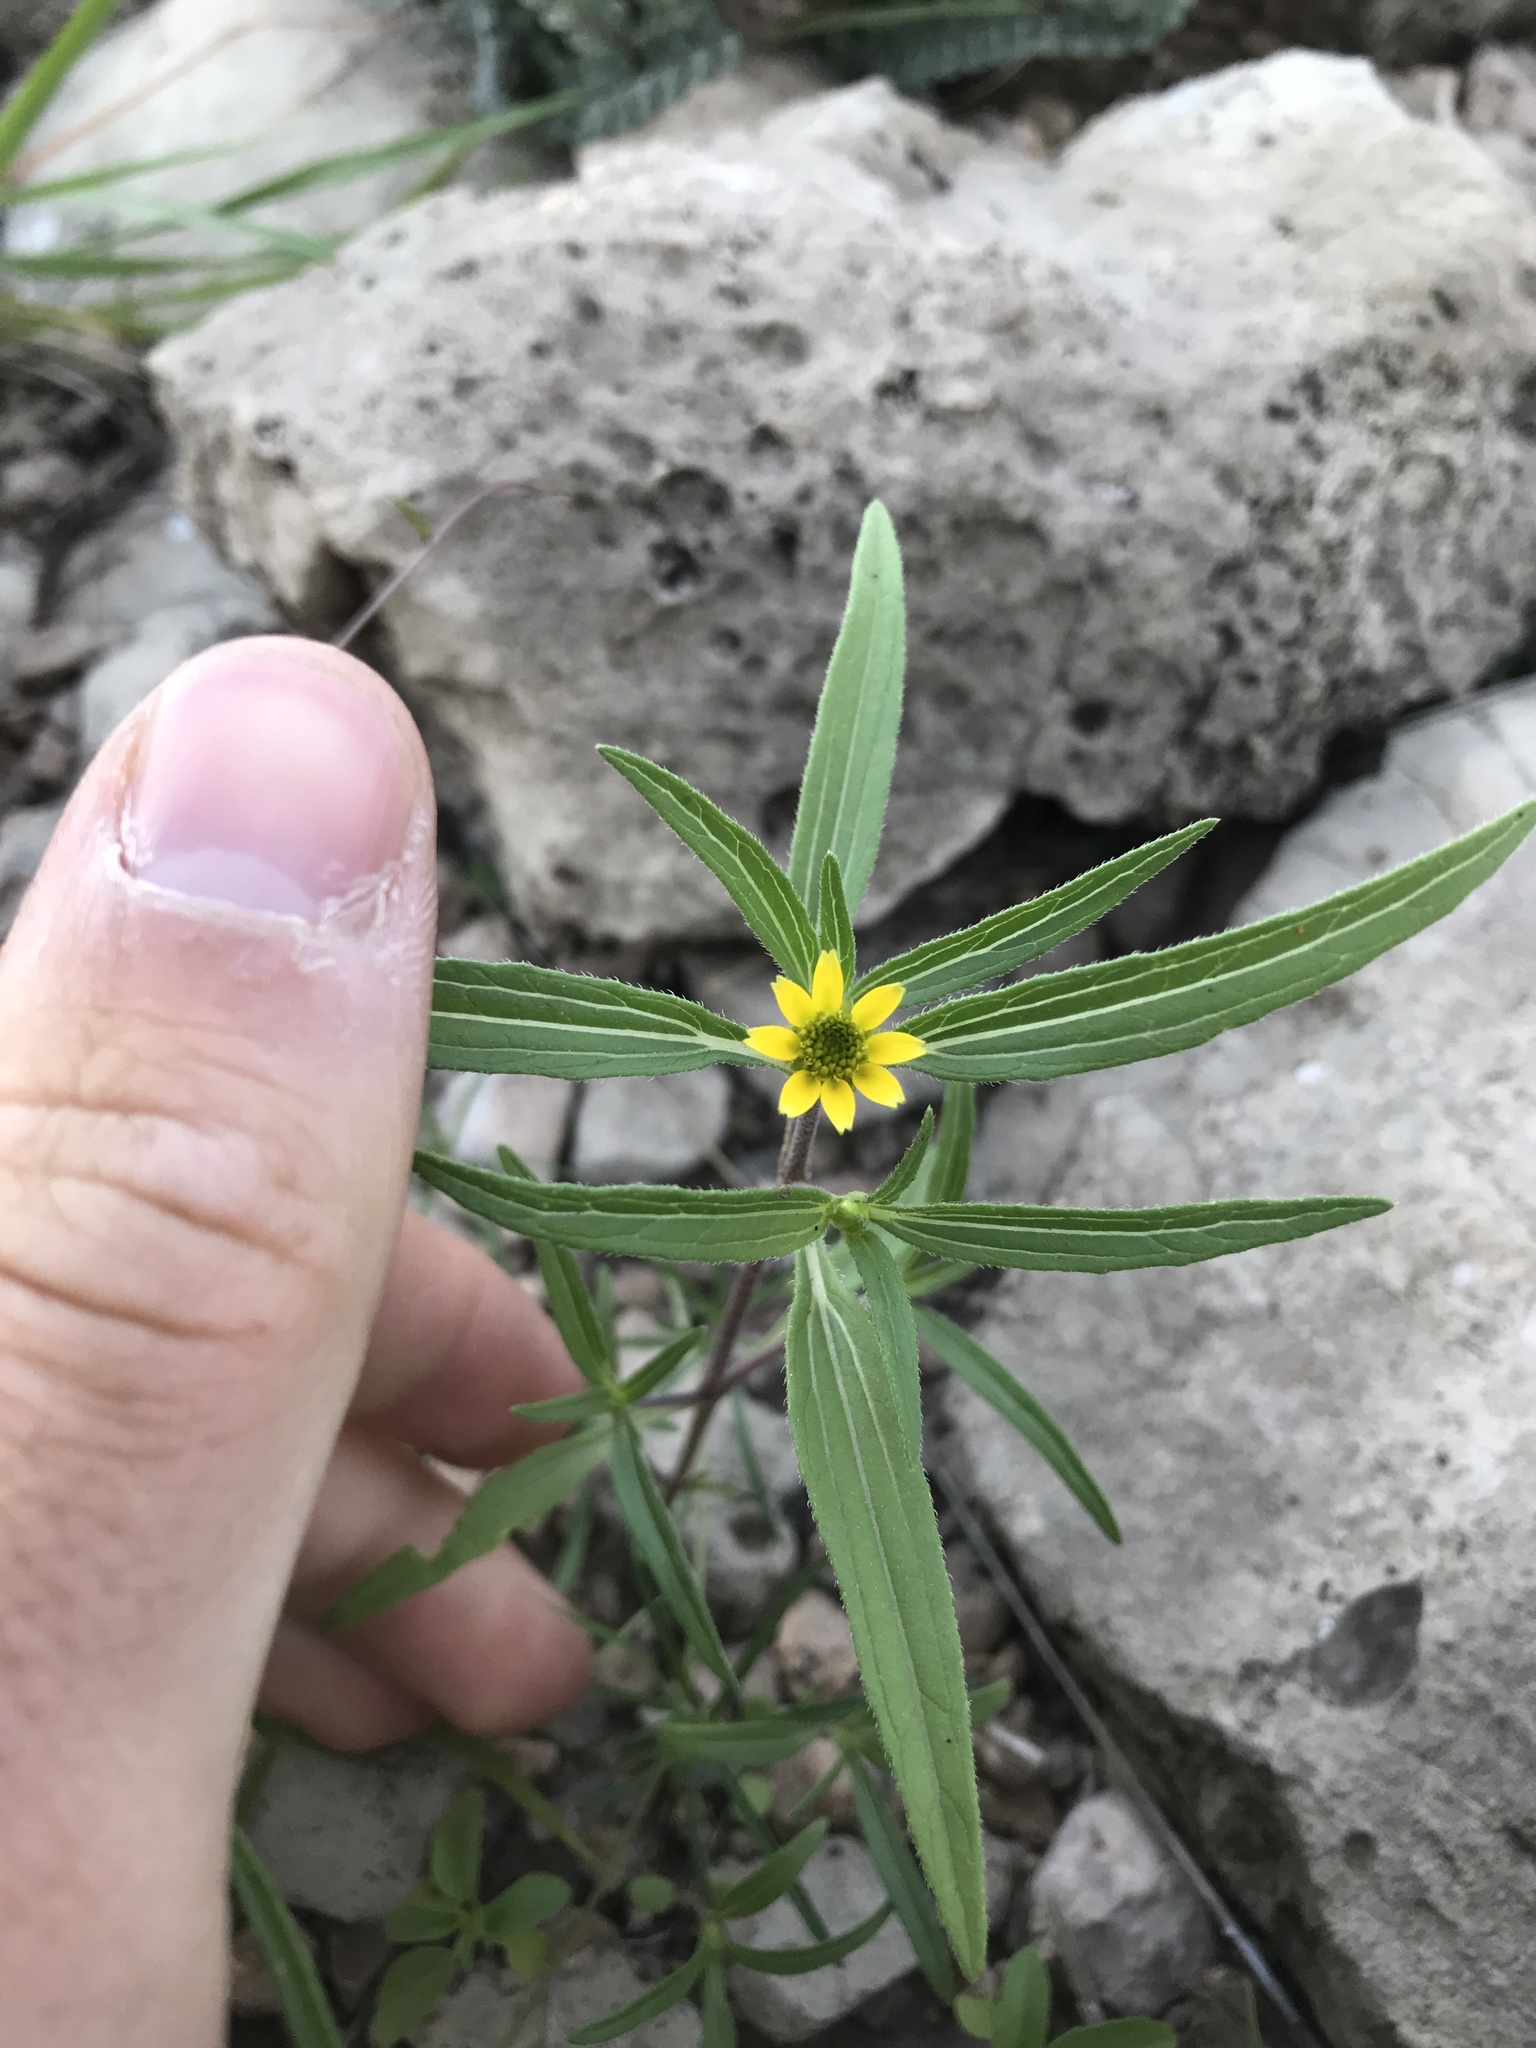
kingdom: Plantae
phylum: Tracheophyta
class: Magnoliopsida
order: Asterales
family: Asteraceae
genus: Sanvitalia
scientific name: Sanvitalia abertii
